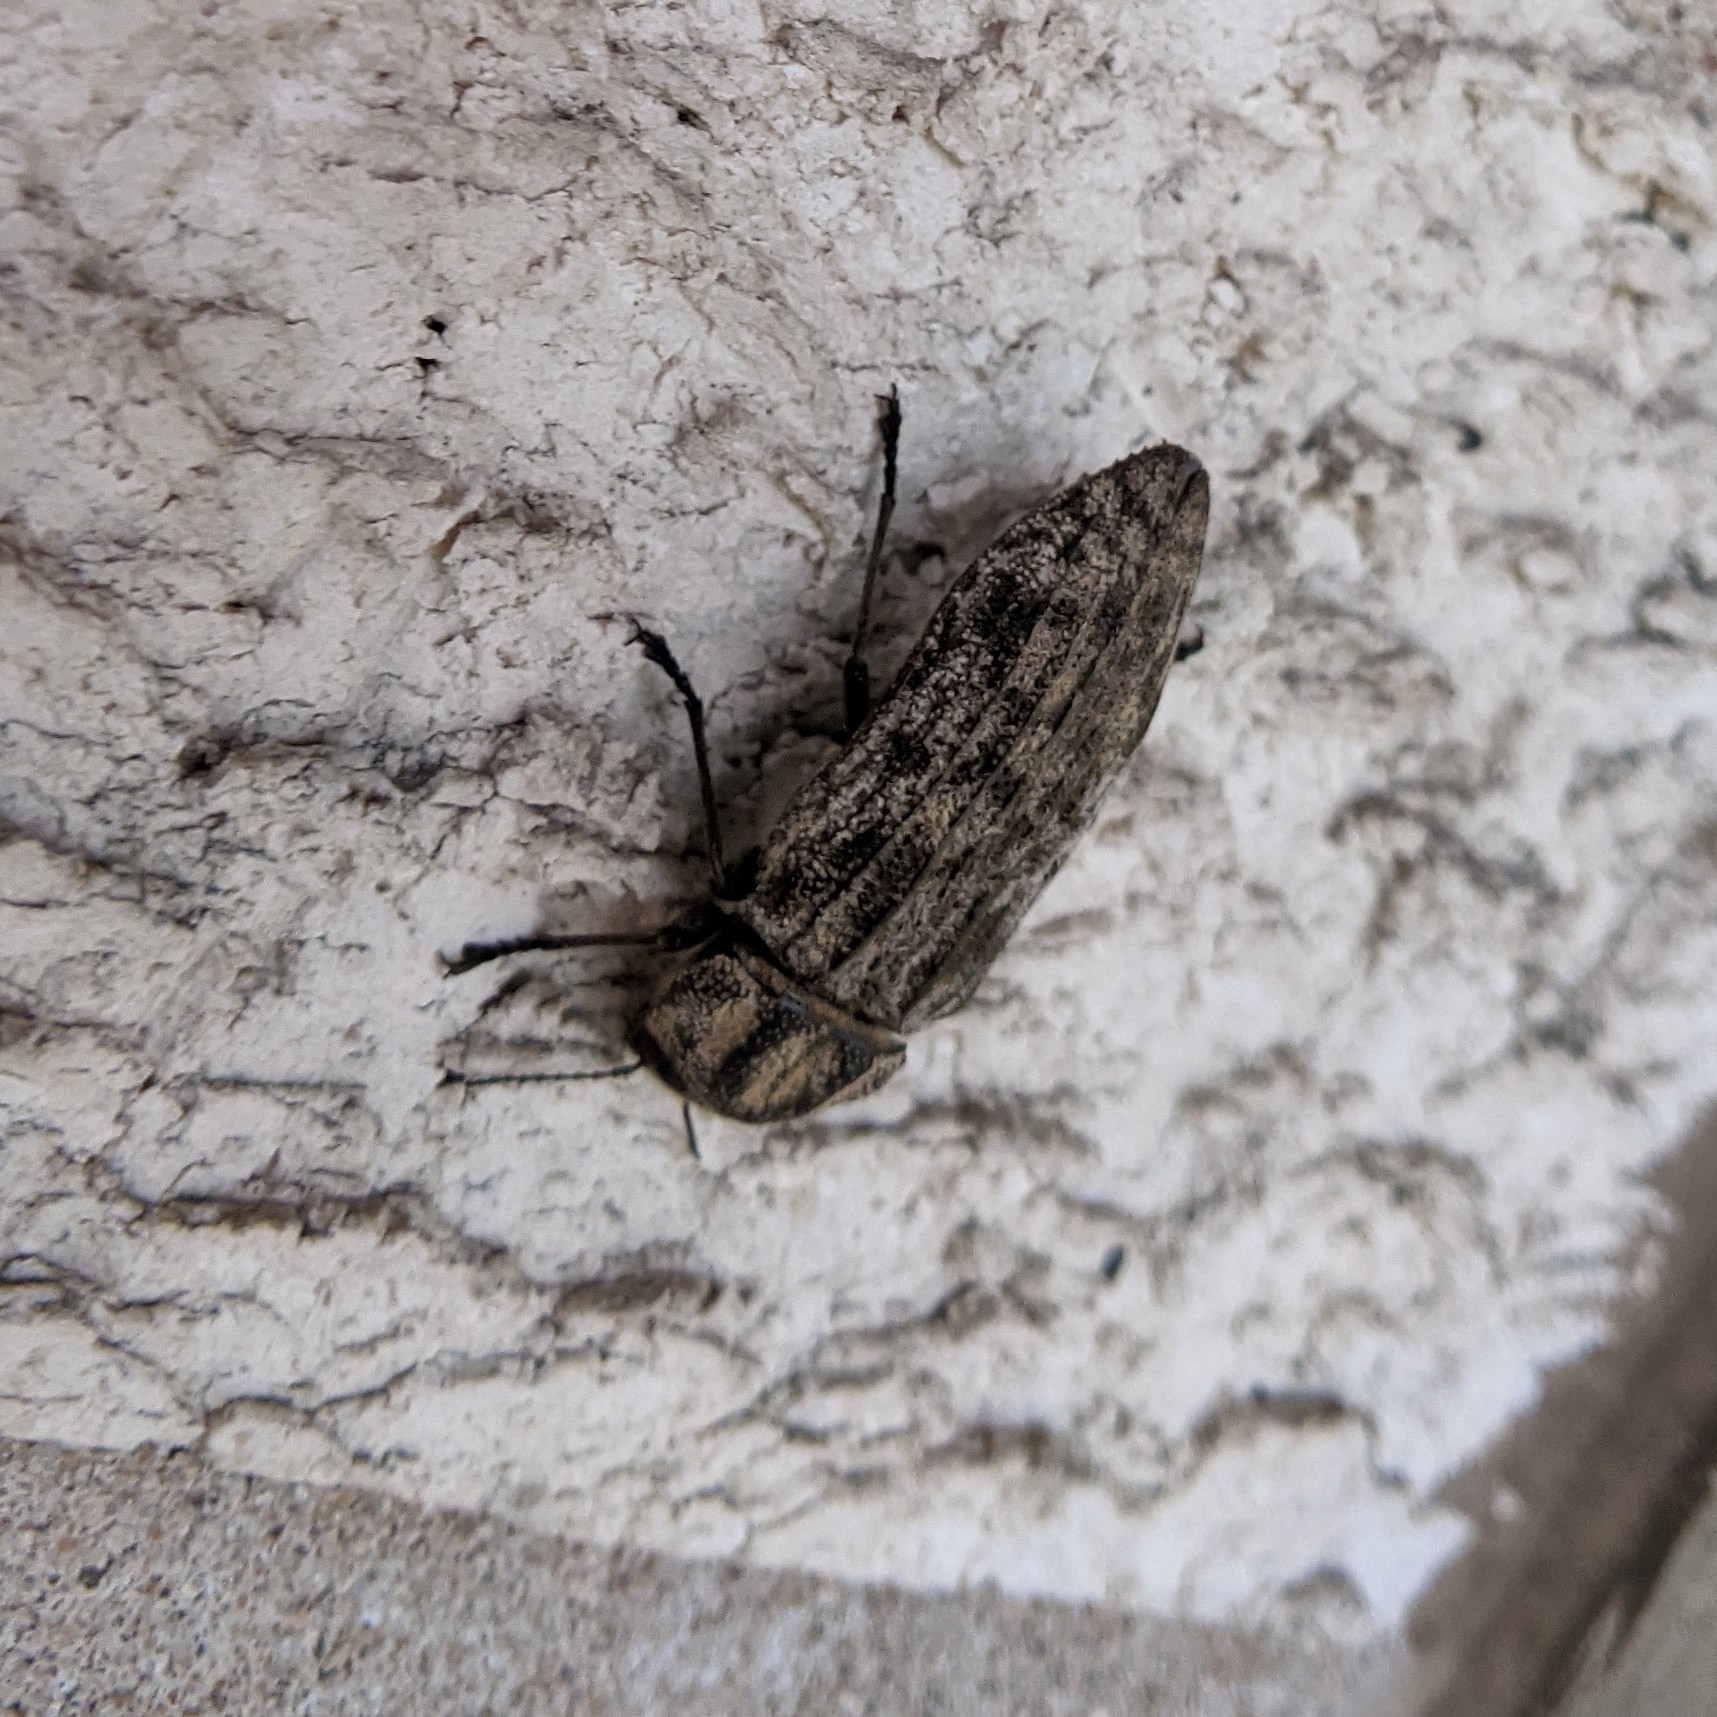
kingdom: Animalia
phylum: Arthropoda
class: Insecta
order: Coleoptera
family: Buprestidae
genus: Polycesta
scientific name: Polycesta elata
